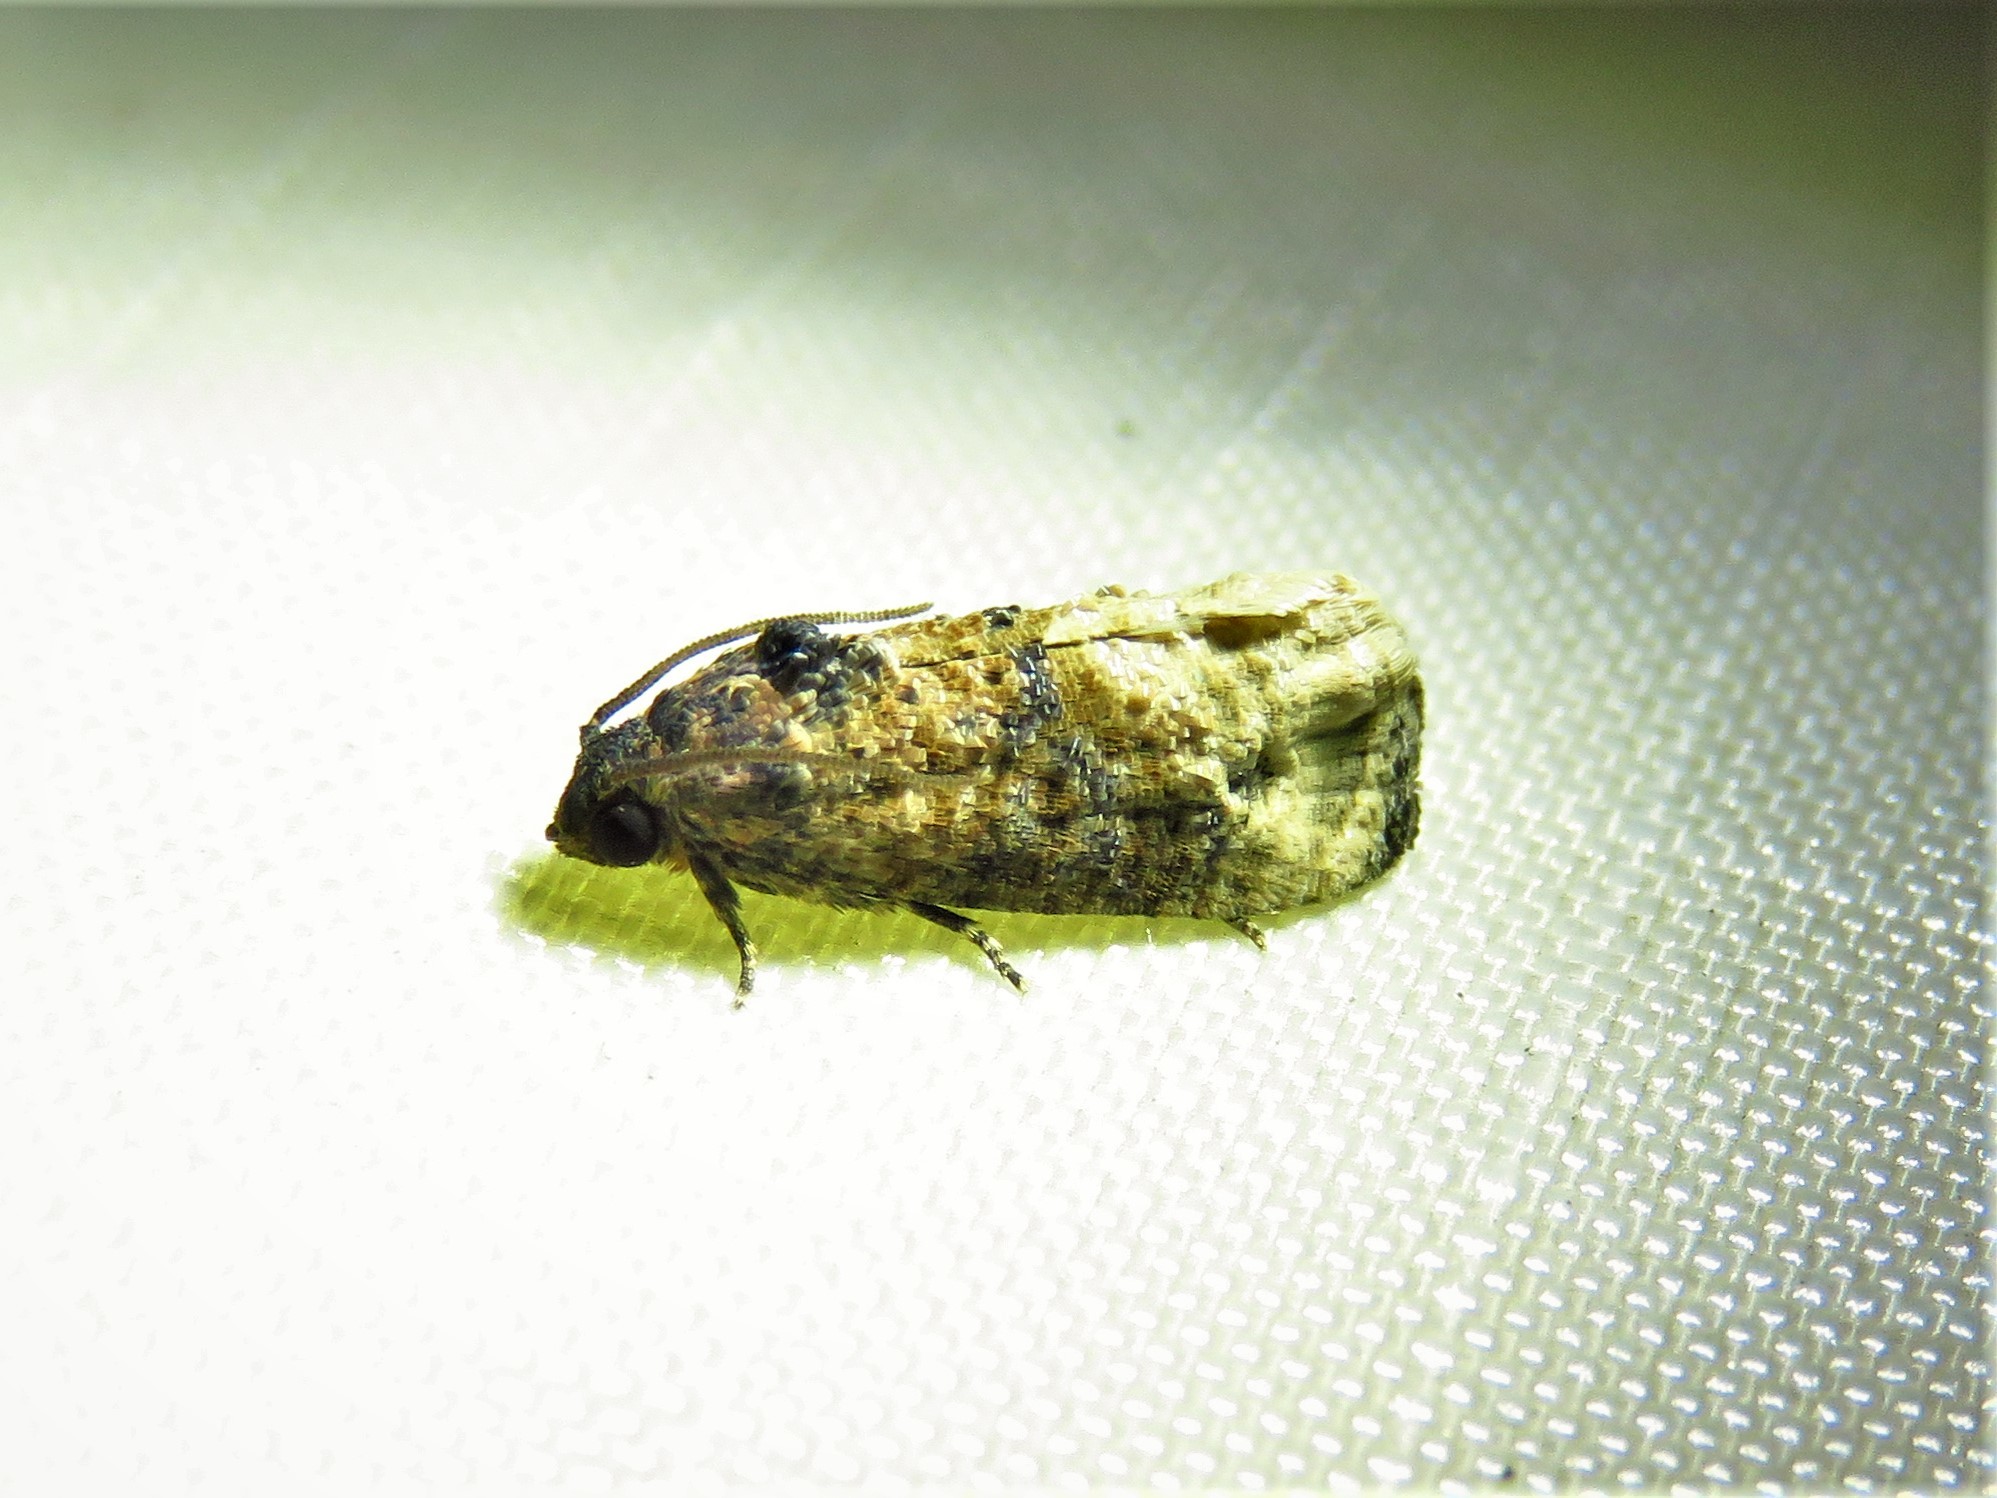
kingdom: Animalia
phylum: Arthropoda
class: Insecta
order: Lepidoptera
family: Tortricidae
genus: Ecdytolopha
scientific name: Ecdytolopha mana
